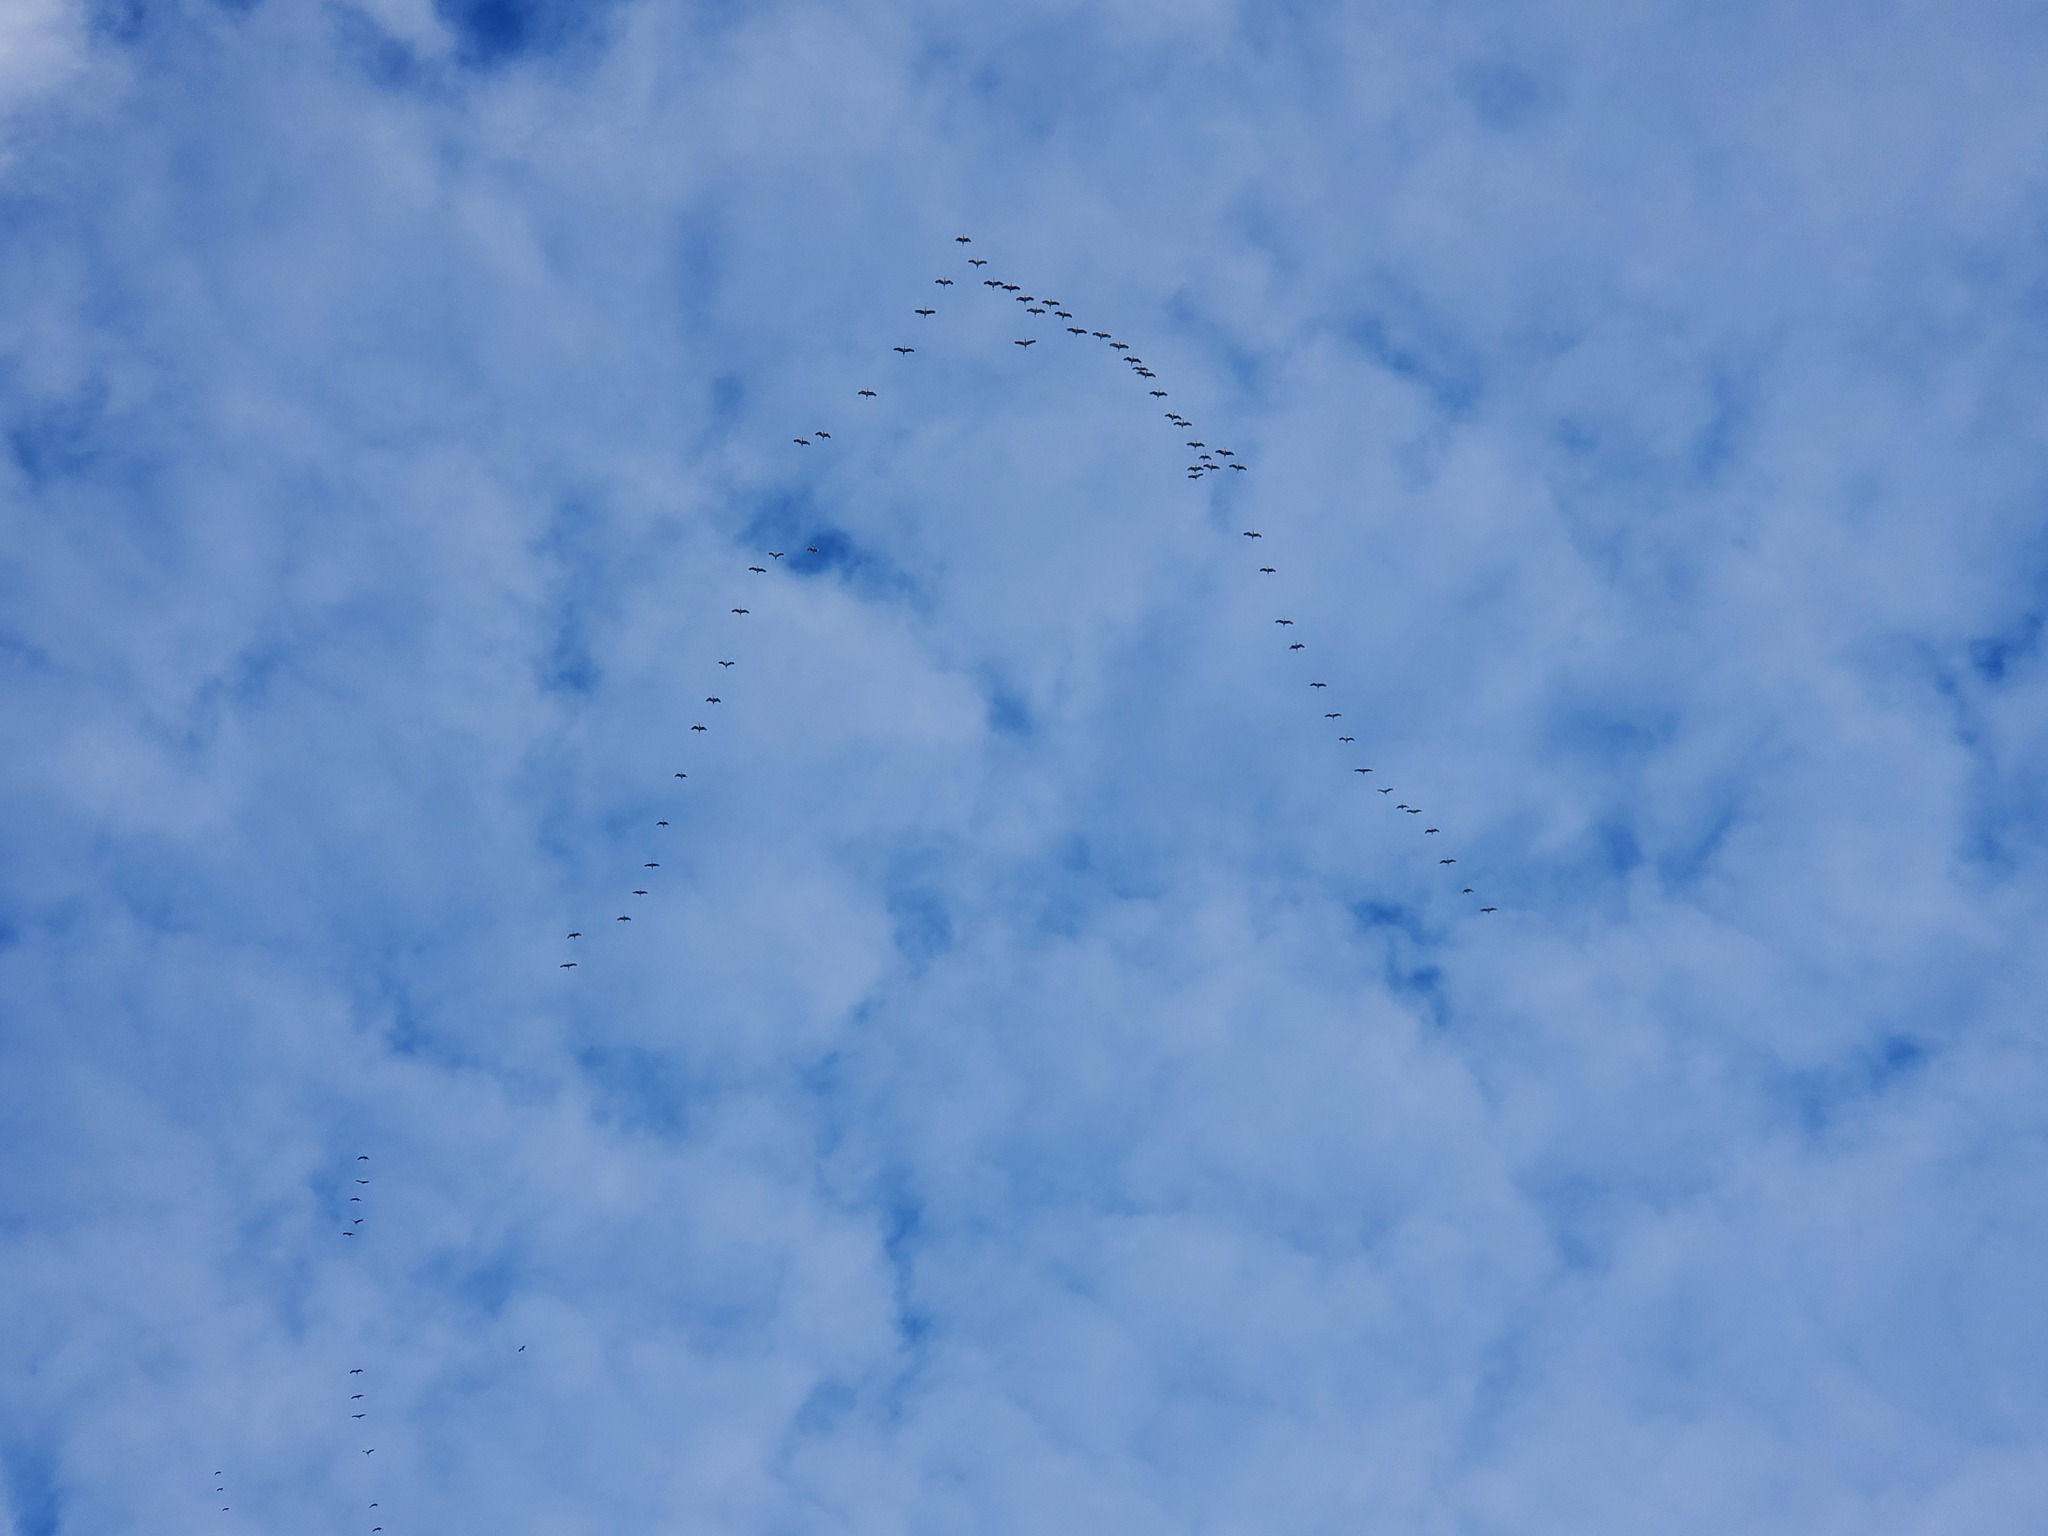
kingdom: Animalia
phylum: Chordata
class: Aves
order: Gruiformes
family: Gruidae
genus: Grus
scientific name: Grus canadensis
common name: Sandhill crane
